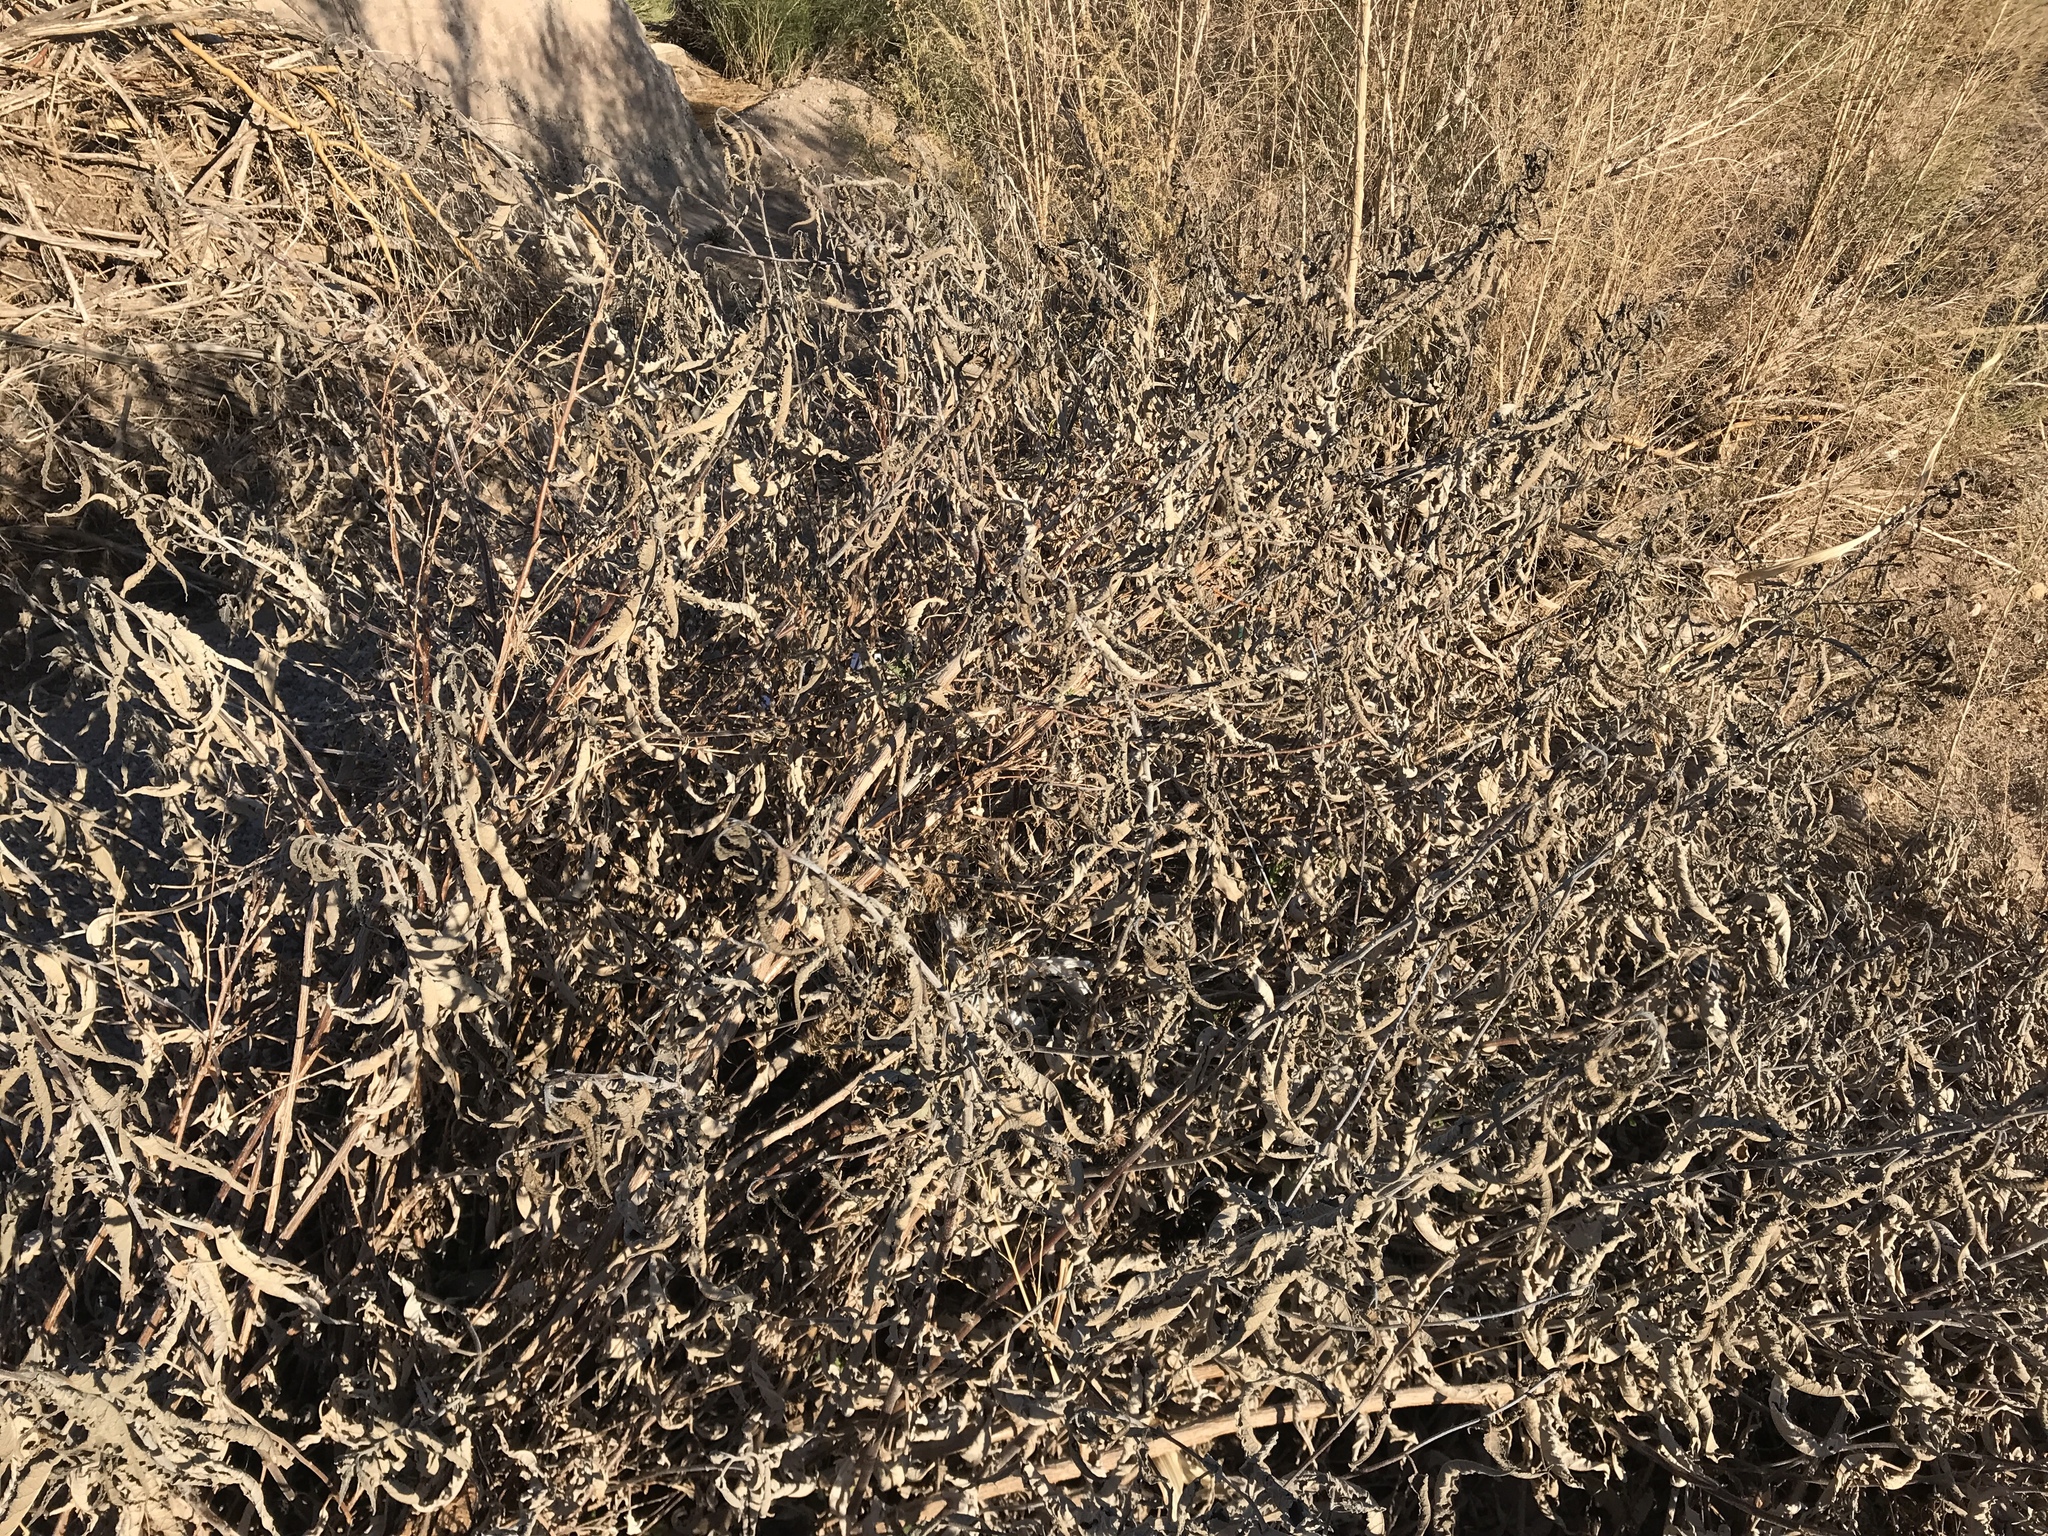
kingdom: Plantae
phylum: Tracheophyta
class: Magnoliopsida
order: Asterales
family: Asteraceae
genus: Ambrosia
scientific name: Ambrosia deltoidea
